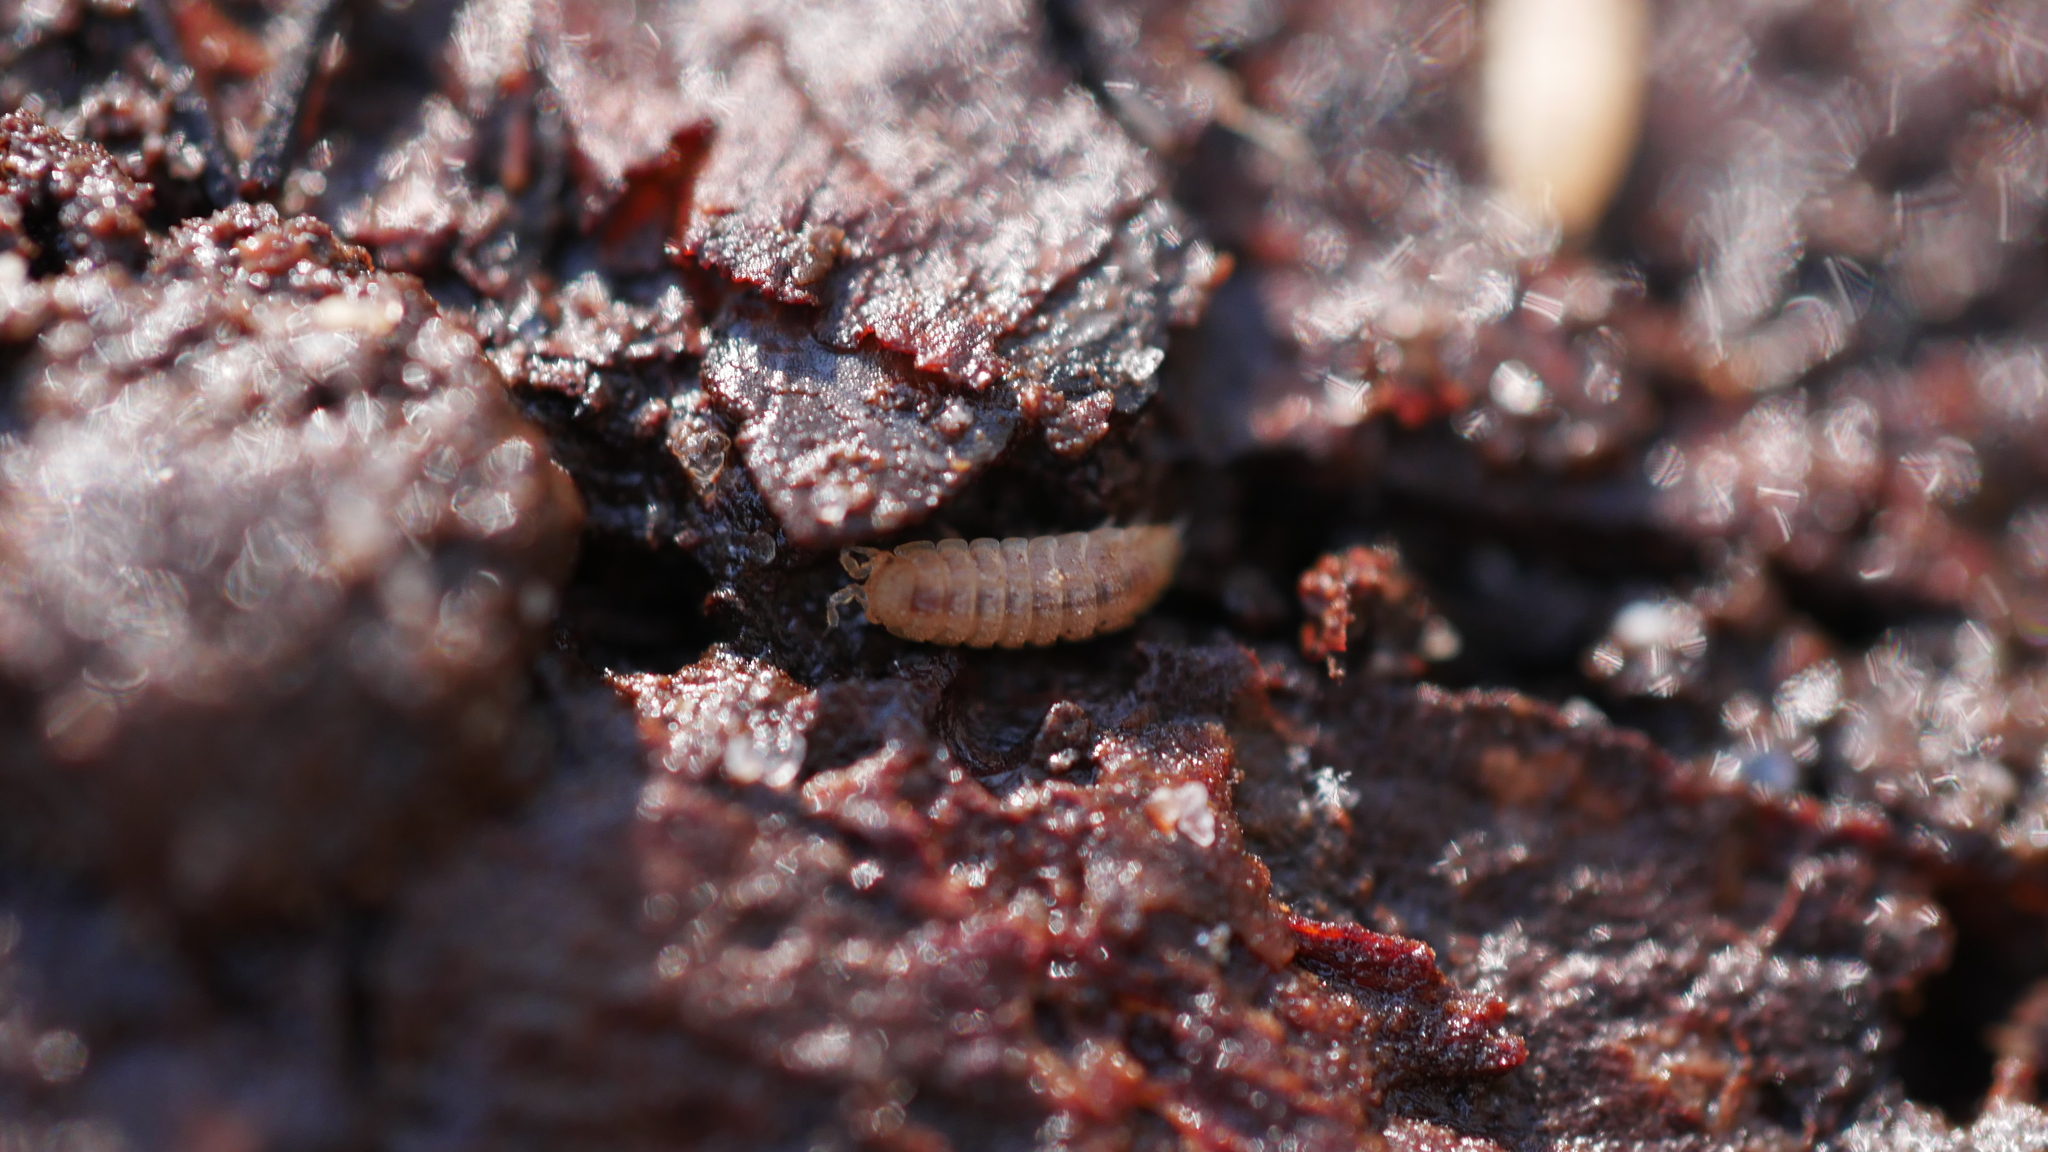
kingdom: Animalia
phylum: Arthropoda
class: Malacostraca
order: Isopoda
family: Trichoniscidae
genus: Haplophthalmus
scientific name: Haplophthalmus danicus
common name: Pillbug
